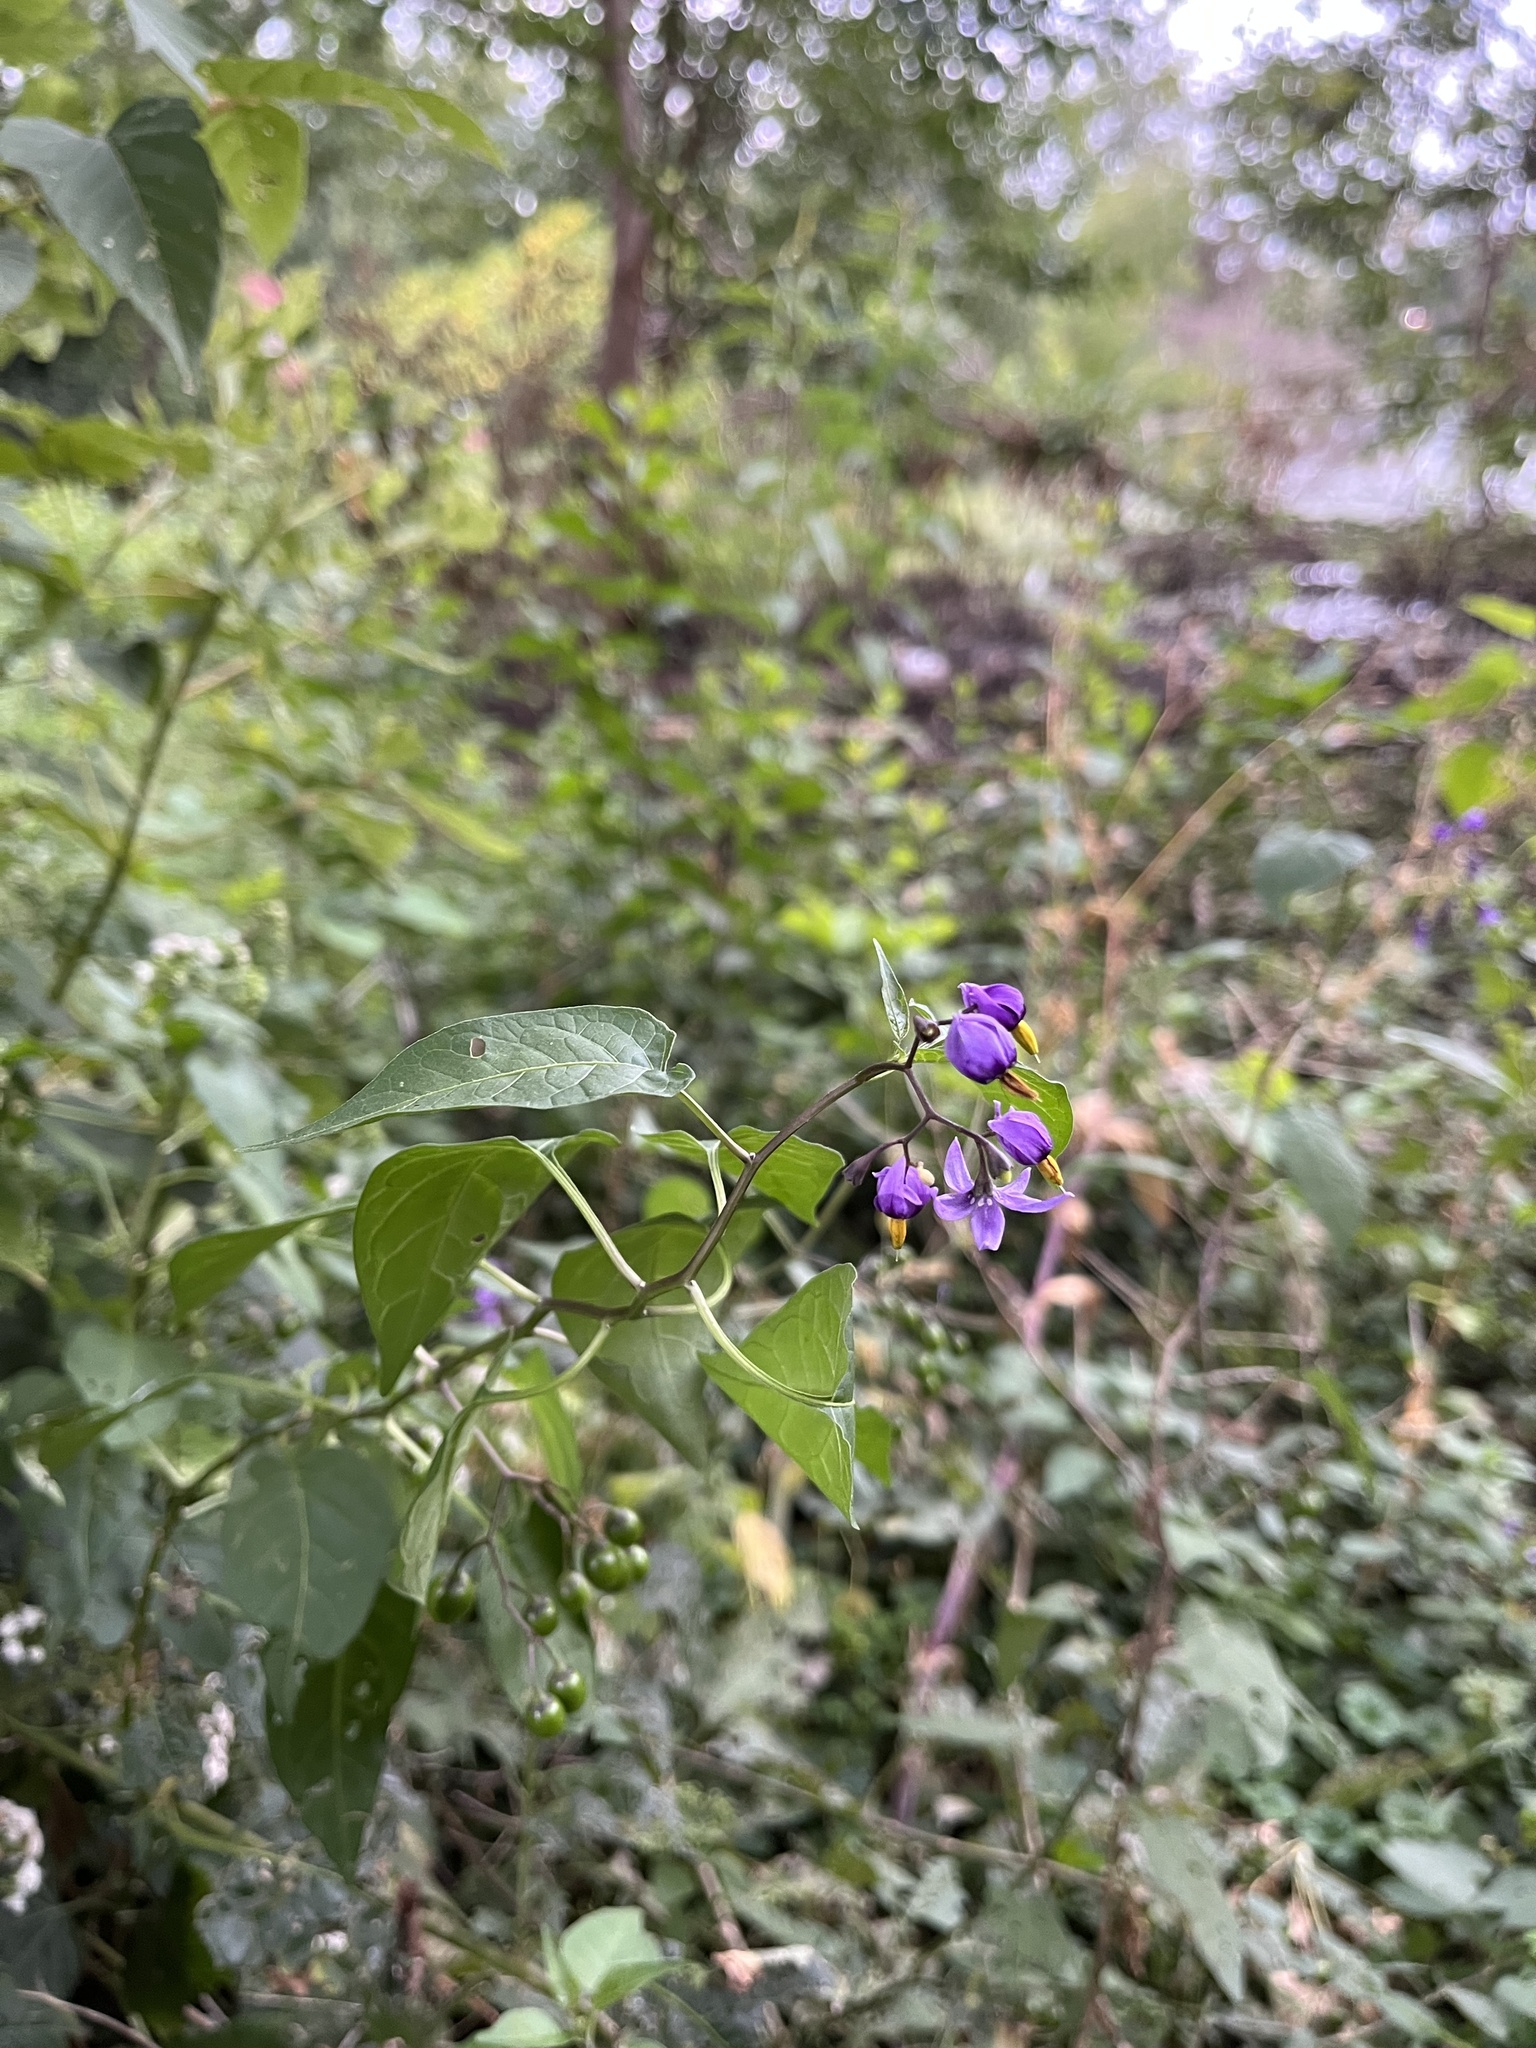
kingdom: Plantae
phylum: Tracheophyta
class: Magnoliopsida
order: Solanales
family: Solanaceae
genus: Solanum
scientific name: Solanum dulcamara
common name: Climbing nightshade
